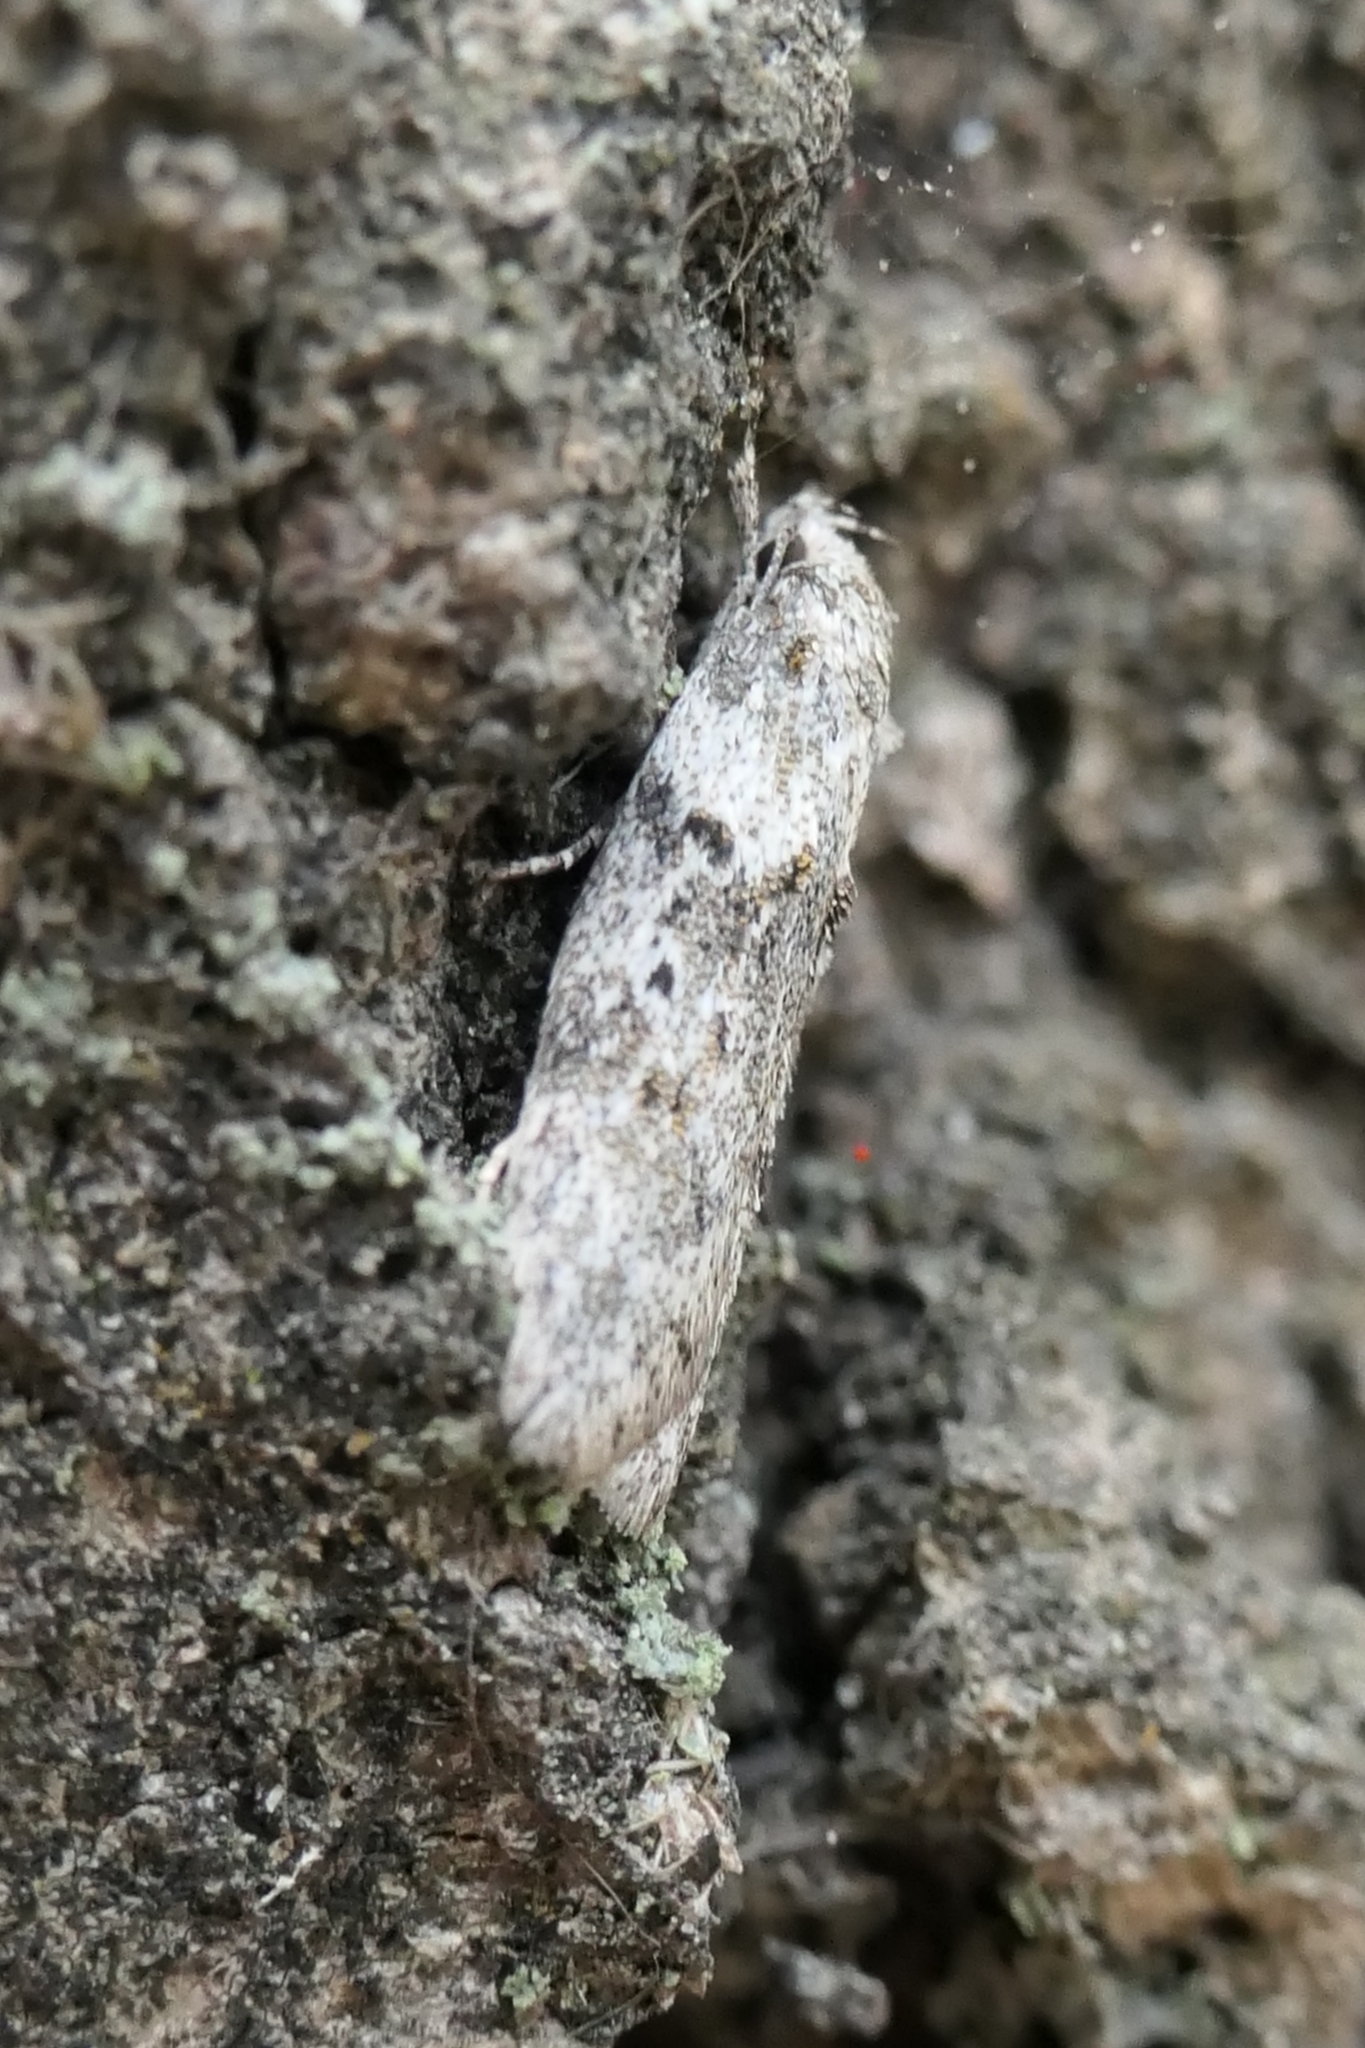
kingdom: Animalia
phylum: Arthropoda
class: Insecta
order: Lepidoptera
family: Oecophoridae
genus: Izatha
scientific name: Izatha convulsella
